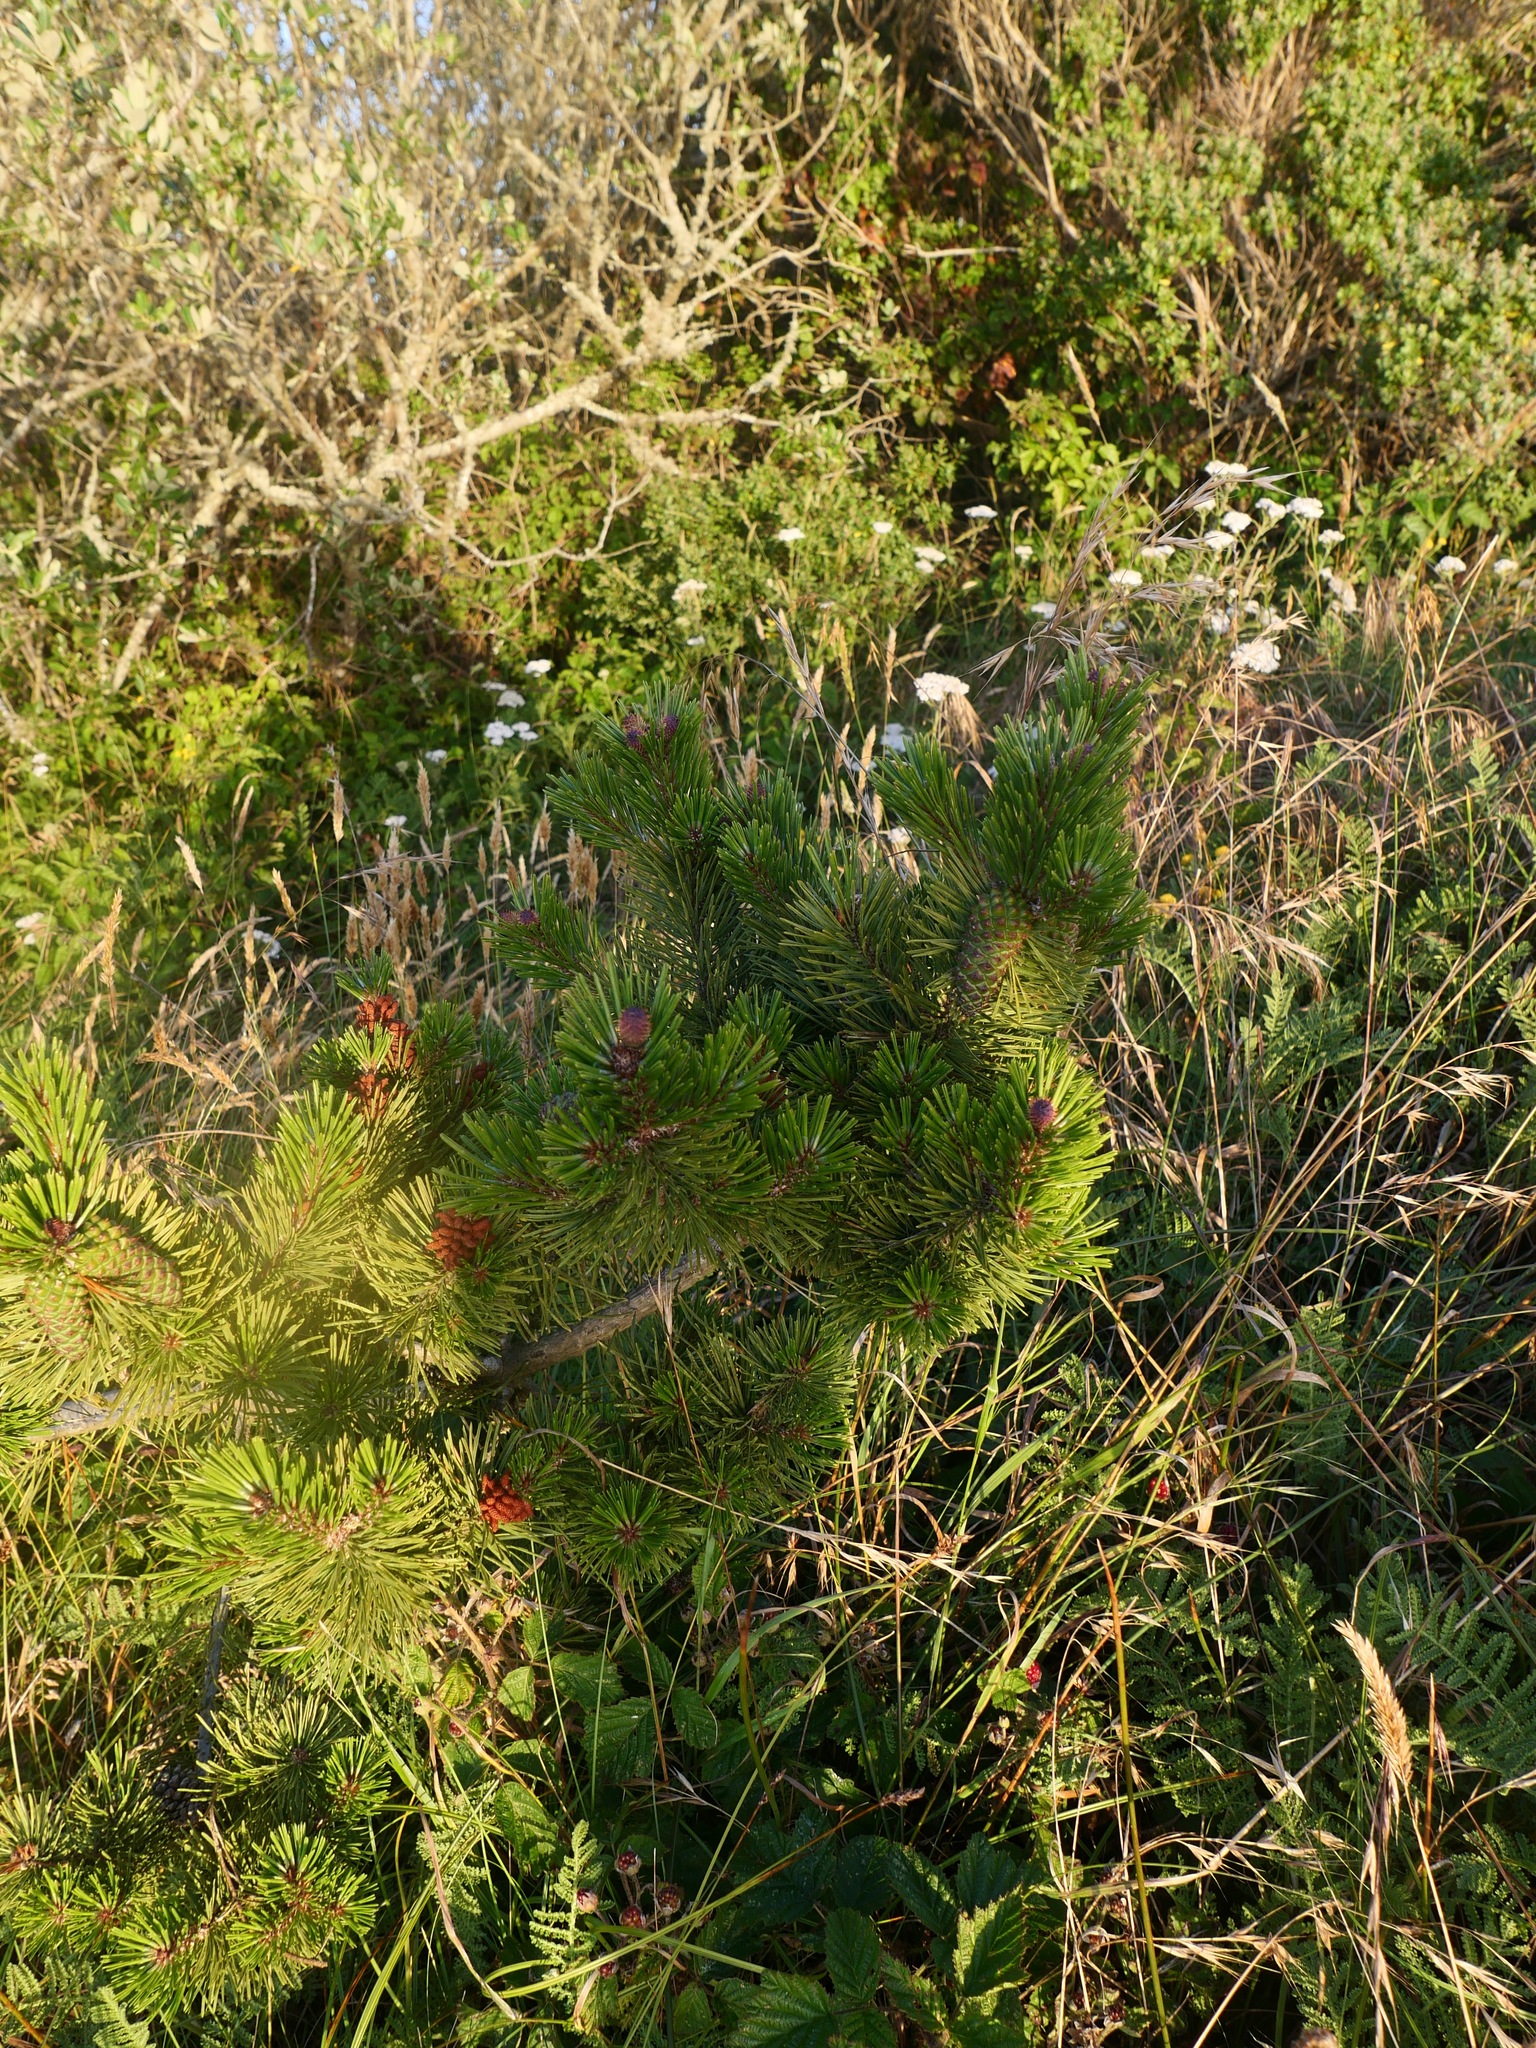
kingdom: Plantae
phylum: Tracheophyta
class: Pinopsida
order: Pinales
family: Pinaceae
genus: Pinus
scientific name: Pinus contorta
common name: Lodgepole pine
